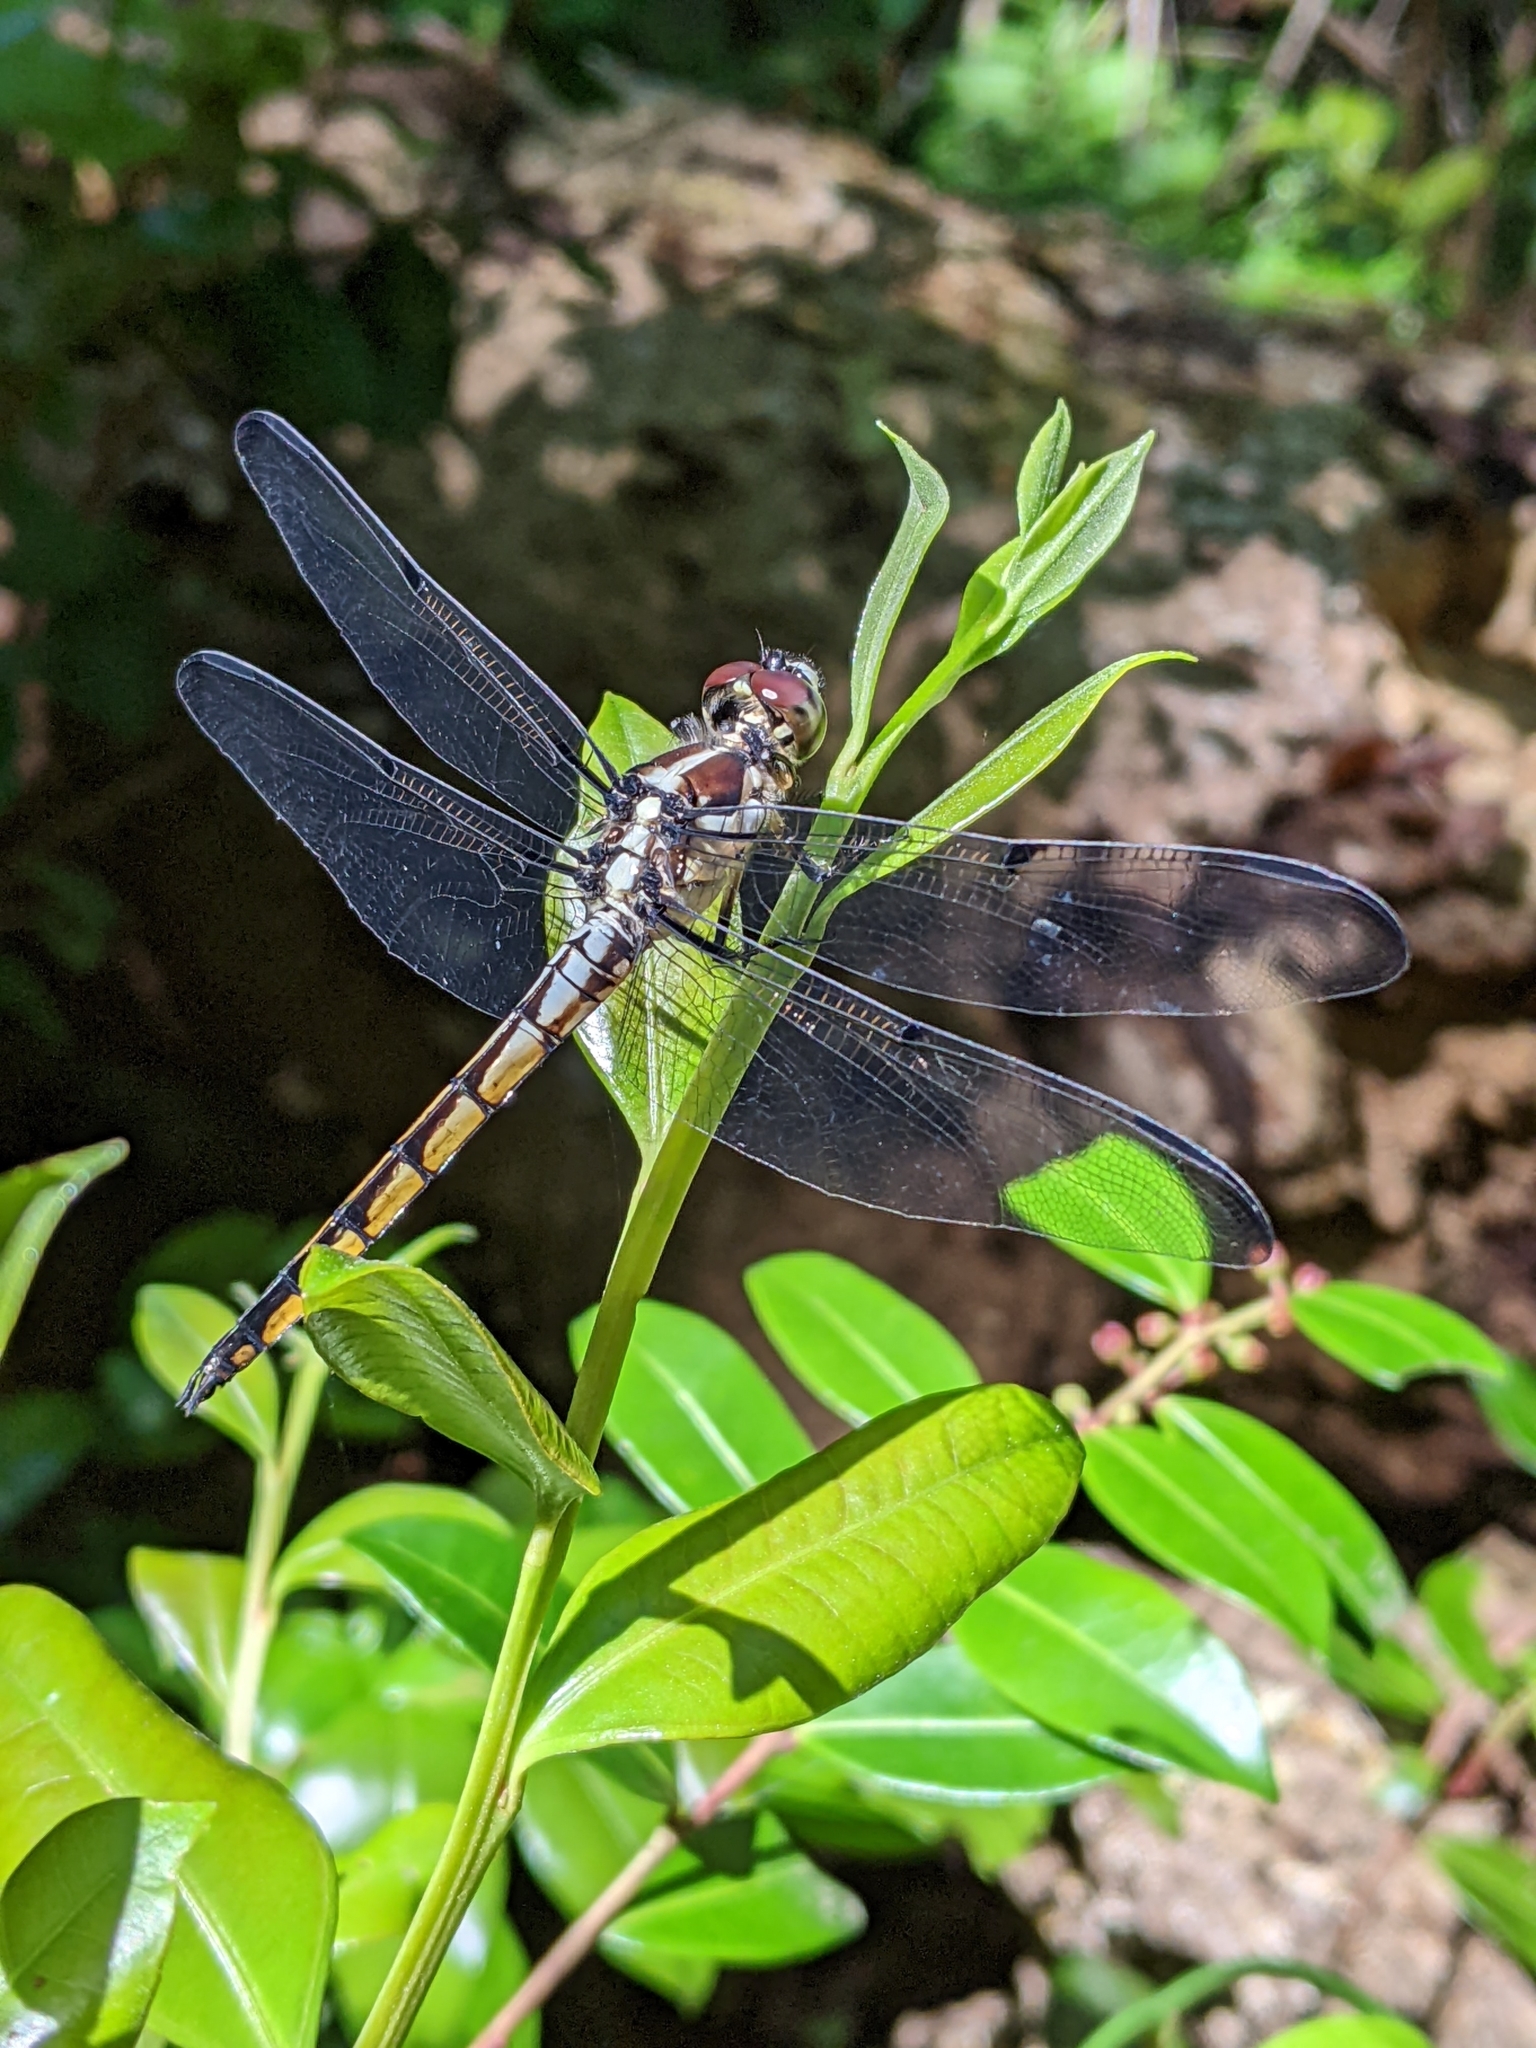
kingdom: Animalia
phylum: Arthropoda
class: Insecta
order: Odonata
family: Libellulidae
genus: Libellula
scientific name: Libellula vibrans
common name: Great blue skimmer
